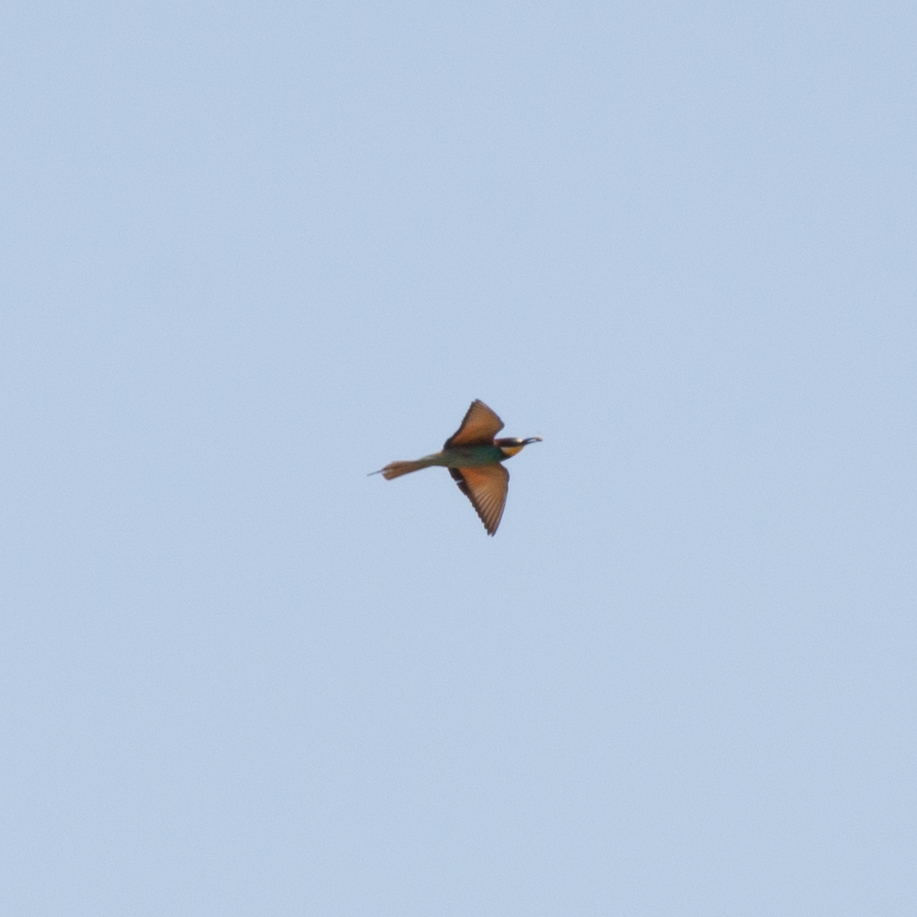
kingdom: Animalia
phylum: Chordata
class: Aves
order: Coraciiformes
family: Meropidae
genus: Merops
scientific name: Merops apiaster
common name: European bee-eater
